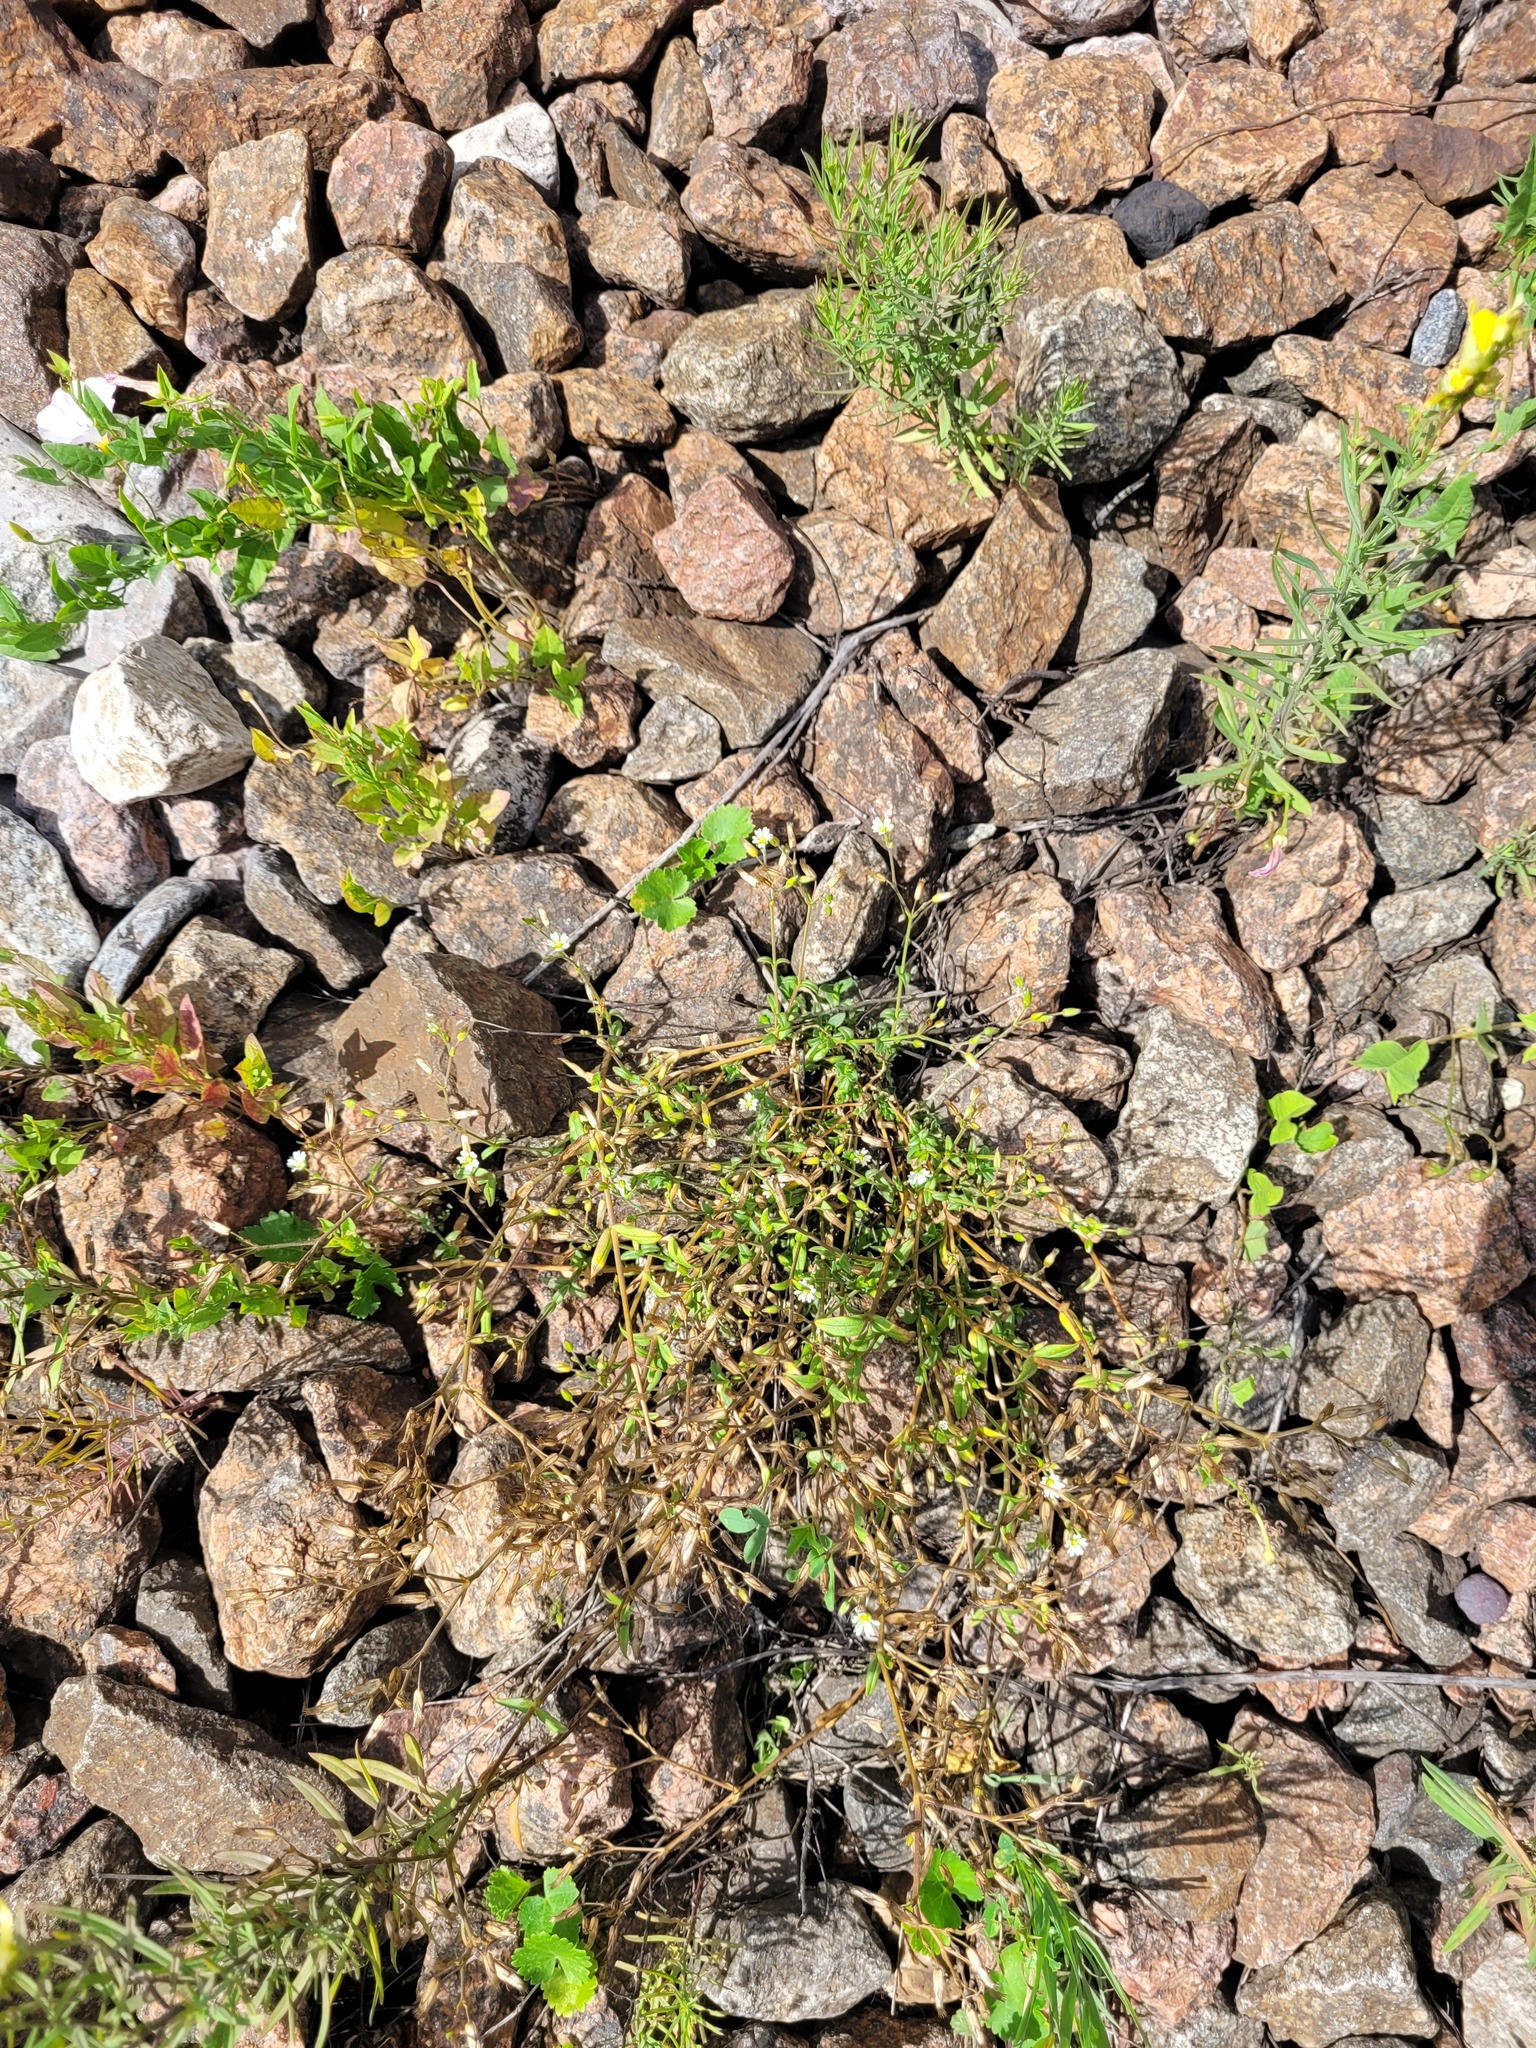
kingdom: Plantae
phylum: Tracheophyta
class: Magnoliopsida
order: Caryophyllales
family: Caryophyllaceae
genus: Cerastium
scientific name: Cerastium holosteoides
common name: Big chickweed
